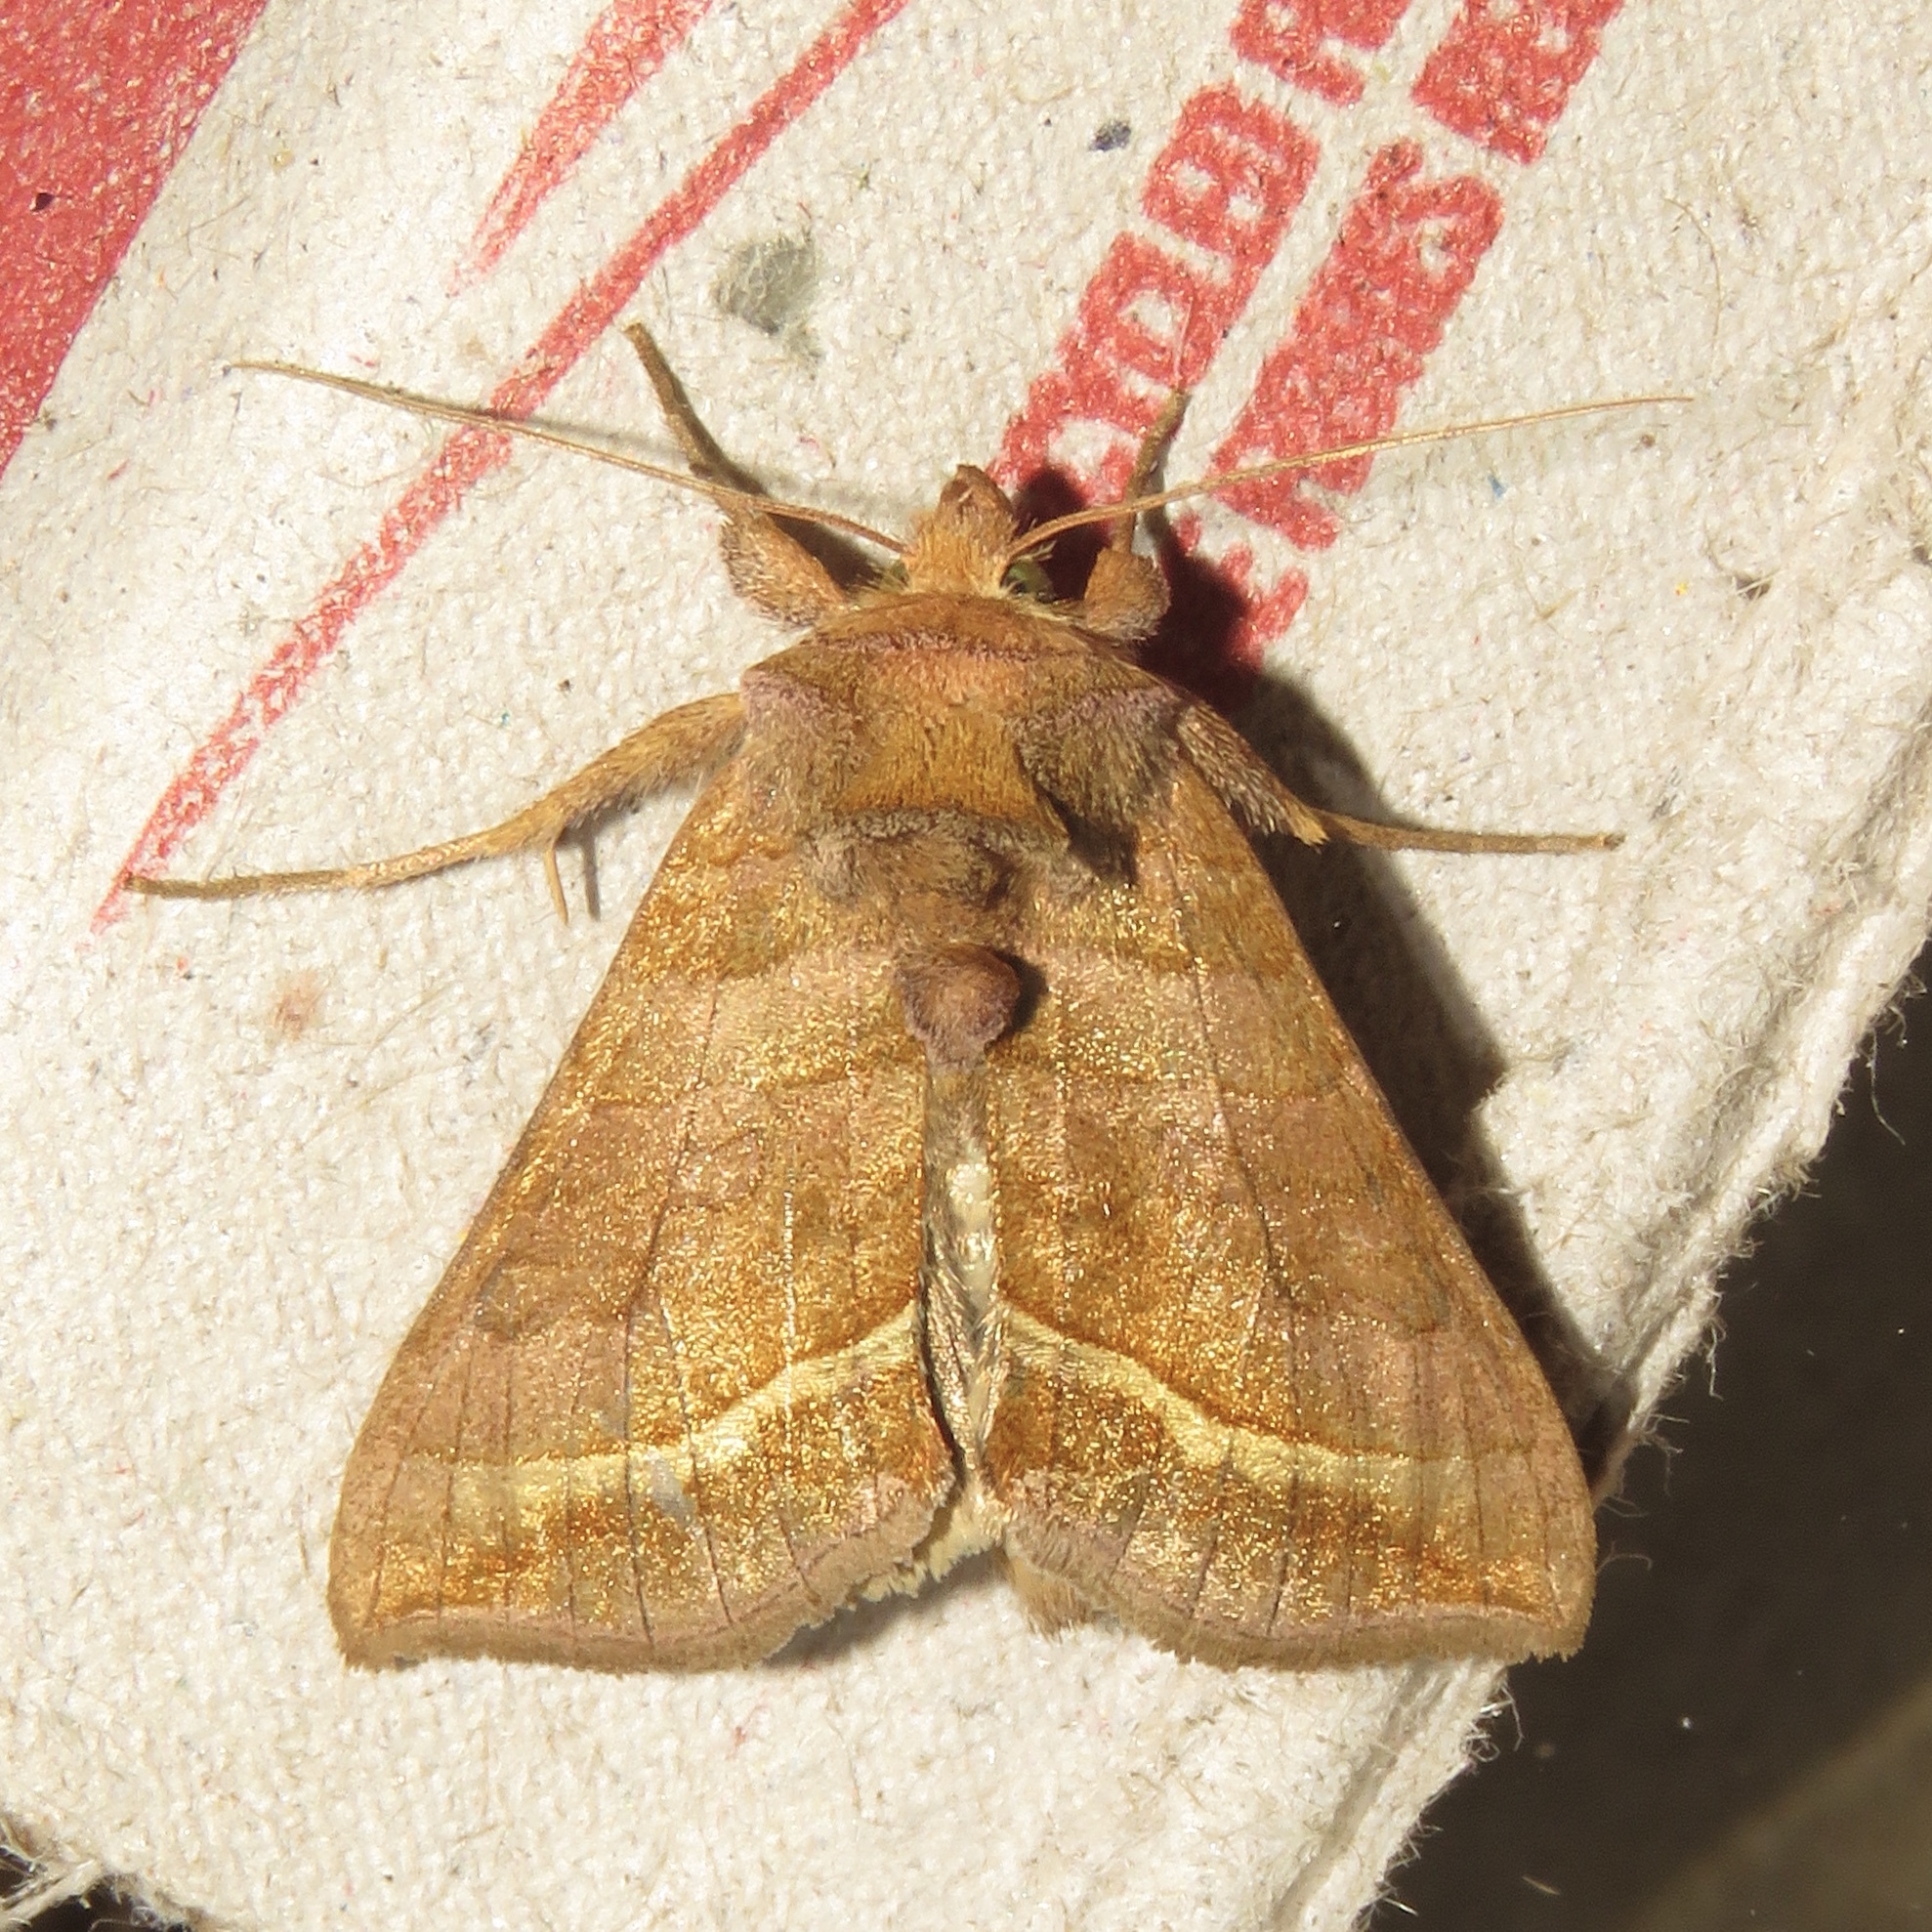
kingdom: Animalia
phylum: Arthropoda
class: Insecta
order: Lepidoptera
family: Noctuidae
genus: Diachrysia
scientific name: Diachrysia aereoides
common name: Dark-spotted looper moth
